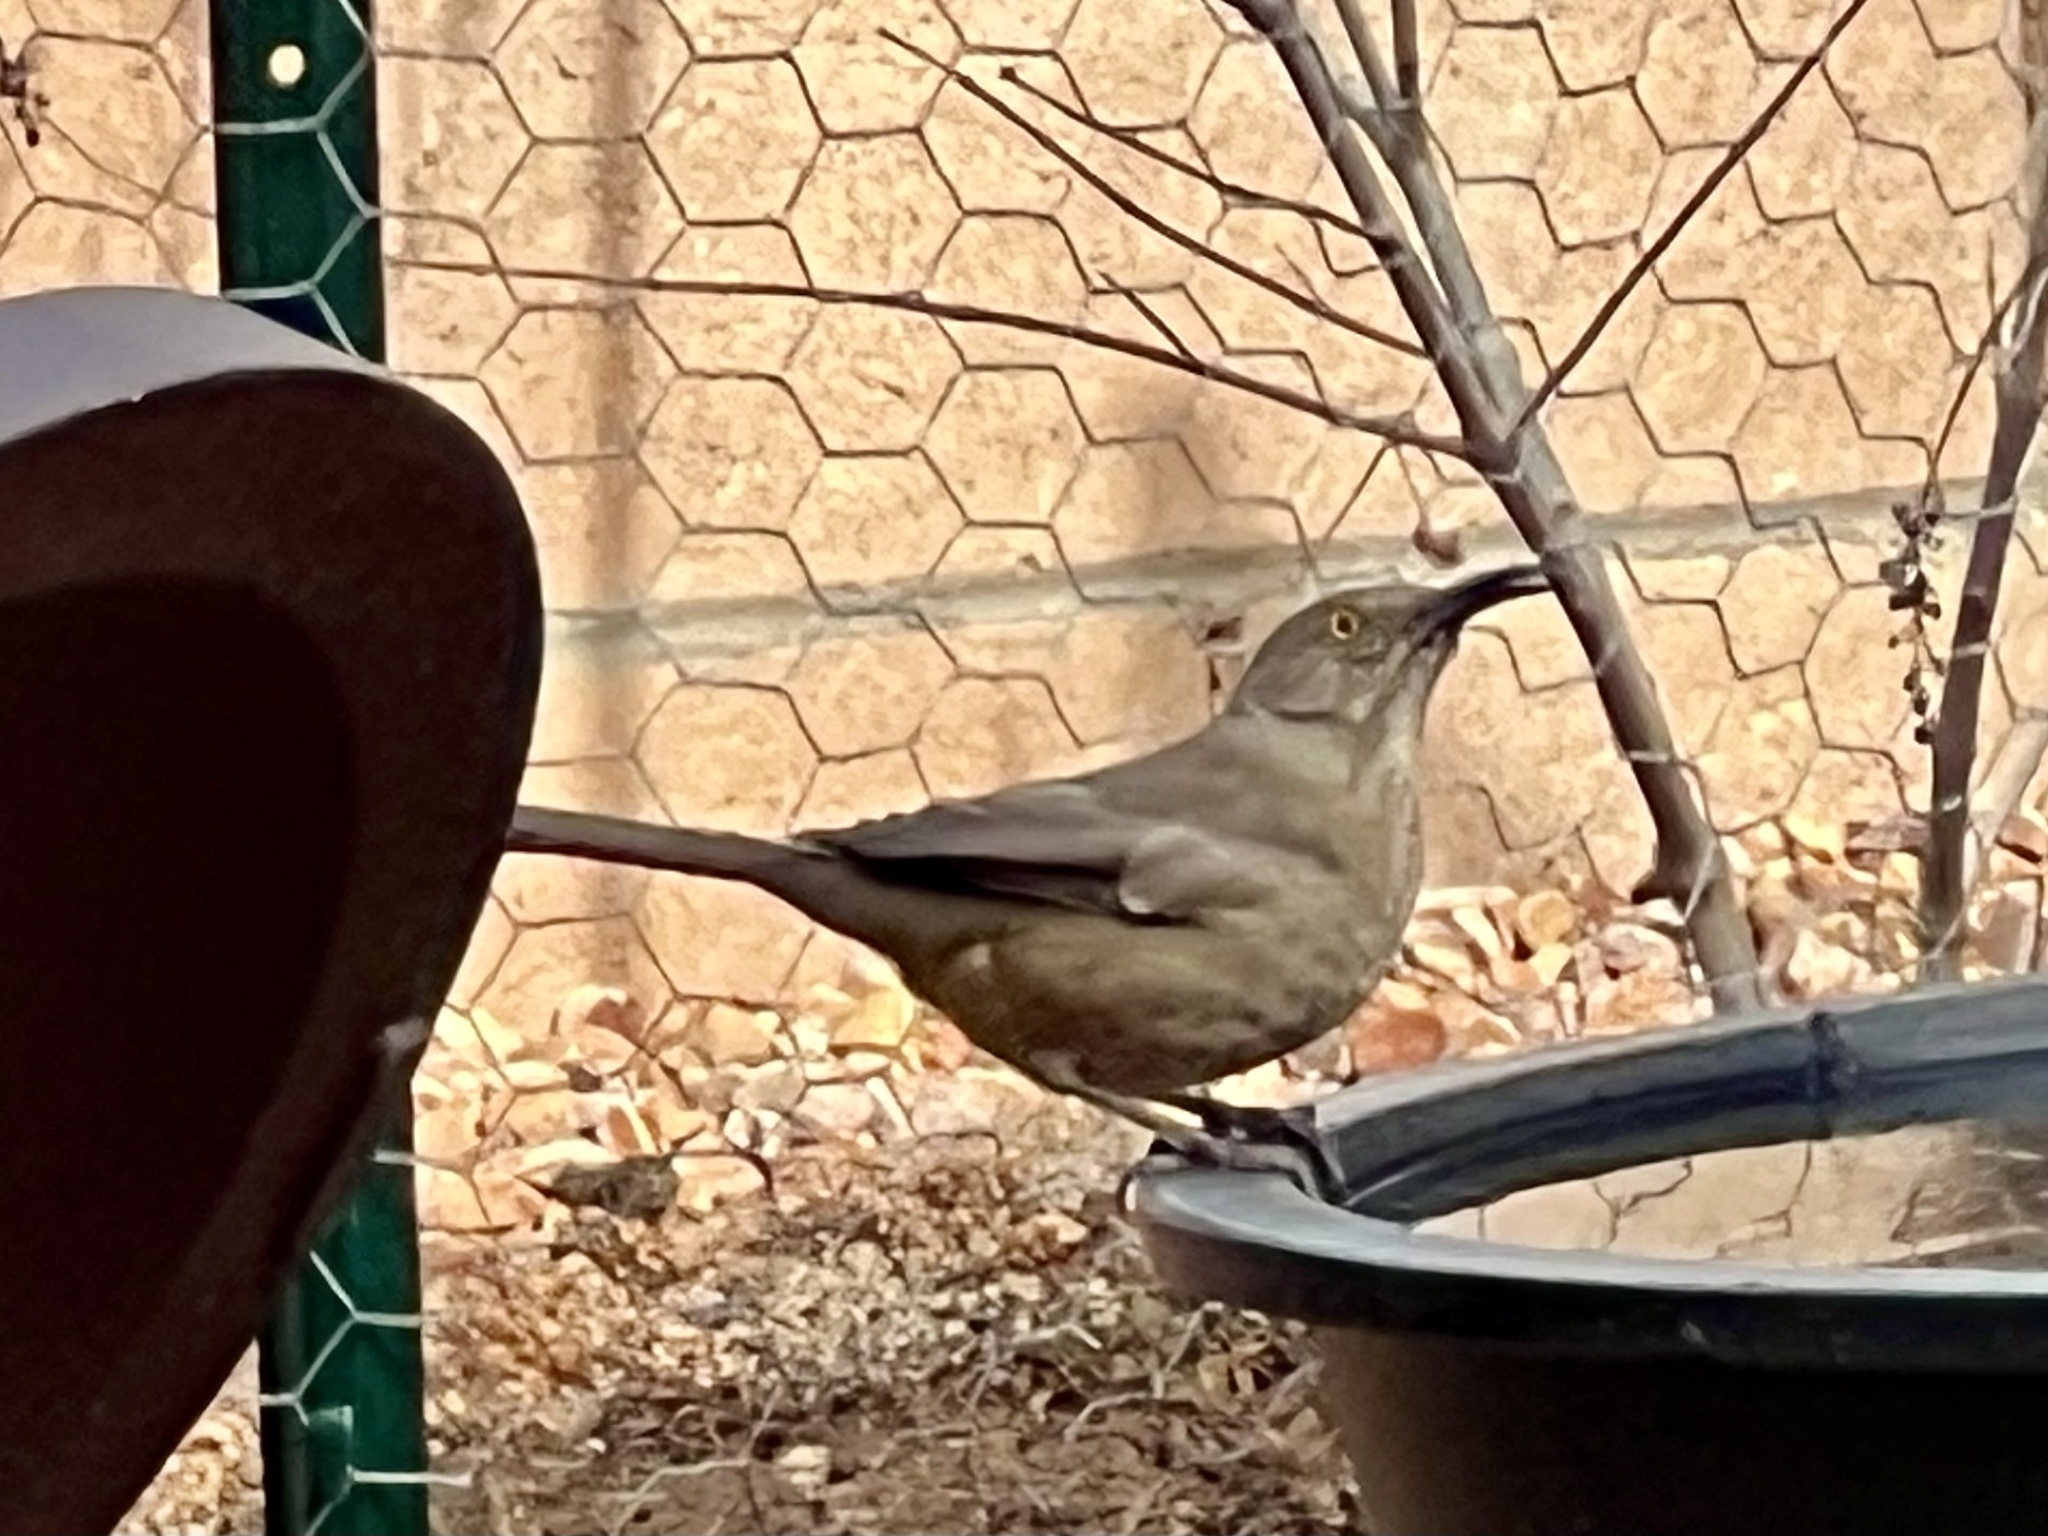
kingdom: Animalia
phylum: Chordata
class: Aves
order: Passeriformes
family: Mimidae
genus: Toxostoma
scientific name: Toxostoma curvirostre
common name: Curve-billed thrasher
